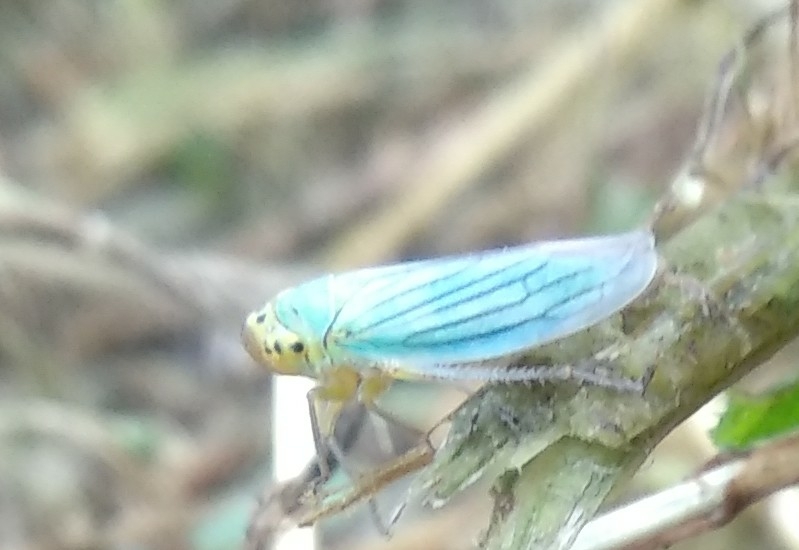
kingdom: Animalia
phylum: Arthropoda
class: Insecta
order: Hemiptera
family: Cicadellidae
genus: Cicadella
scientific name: Cicadella viridis
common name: Leafhopper
